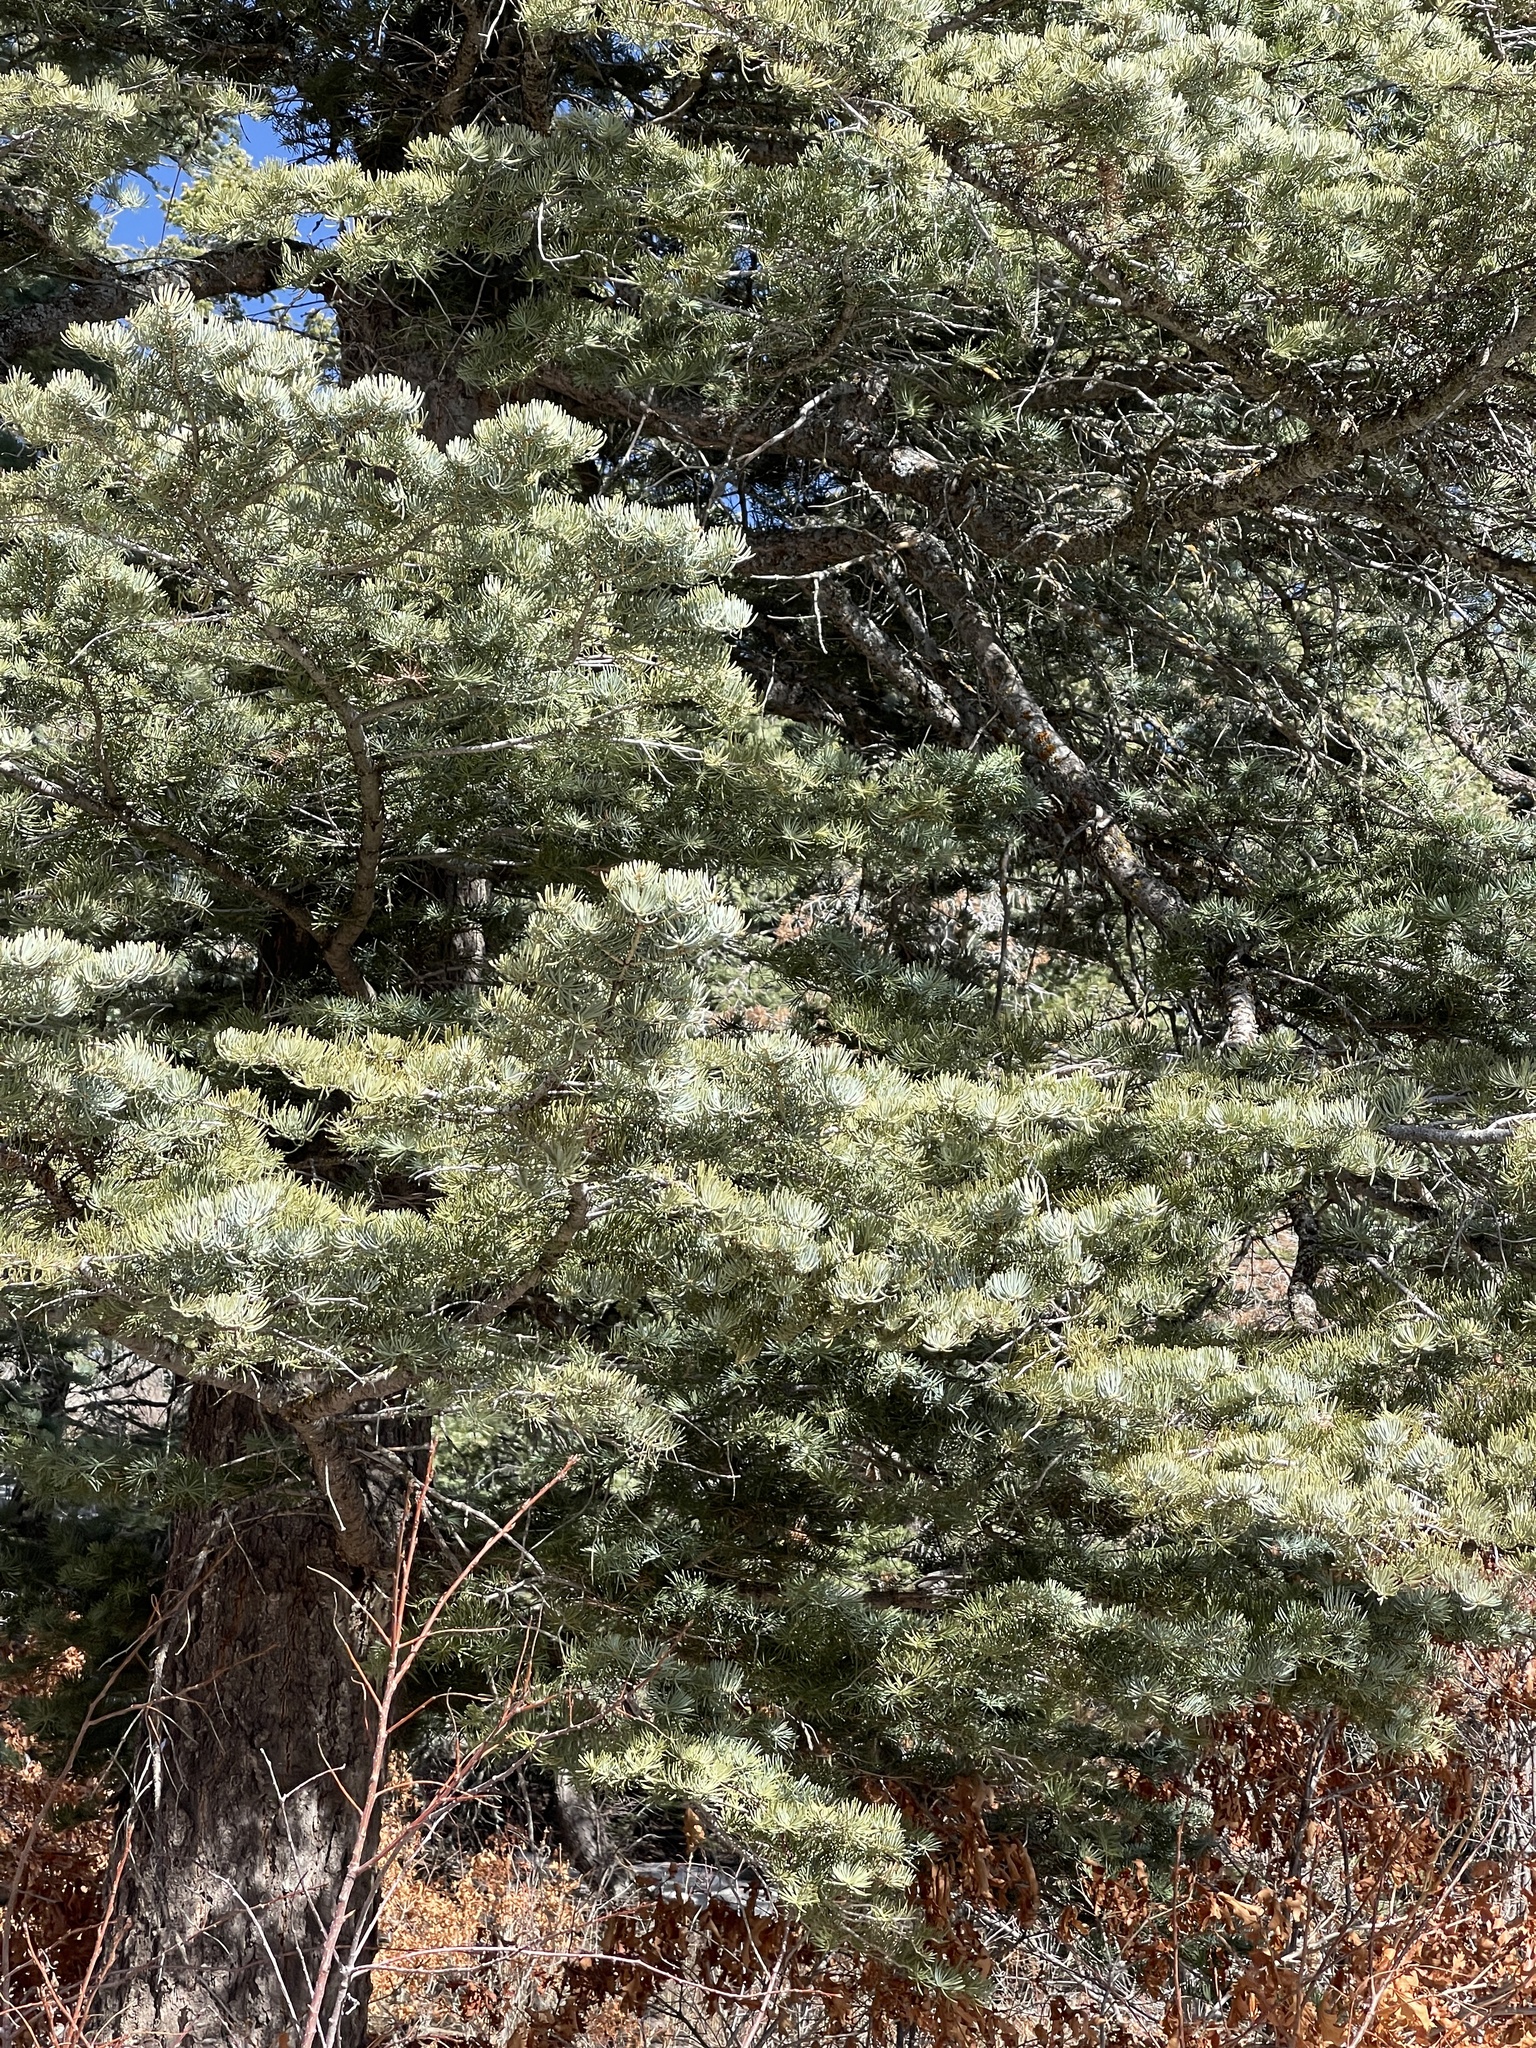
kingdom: Plantae
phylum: Tracheophyta
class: Pinopsida
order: Pinales
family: Pinaceae
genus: Abies
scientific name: Abies concolor
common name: Colorado fir
